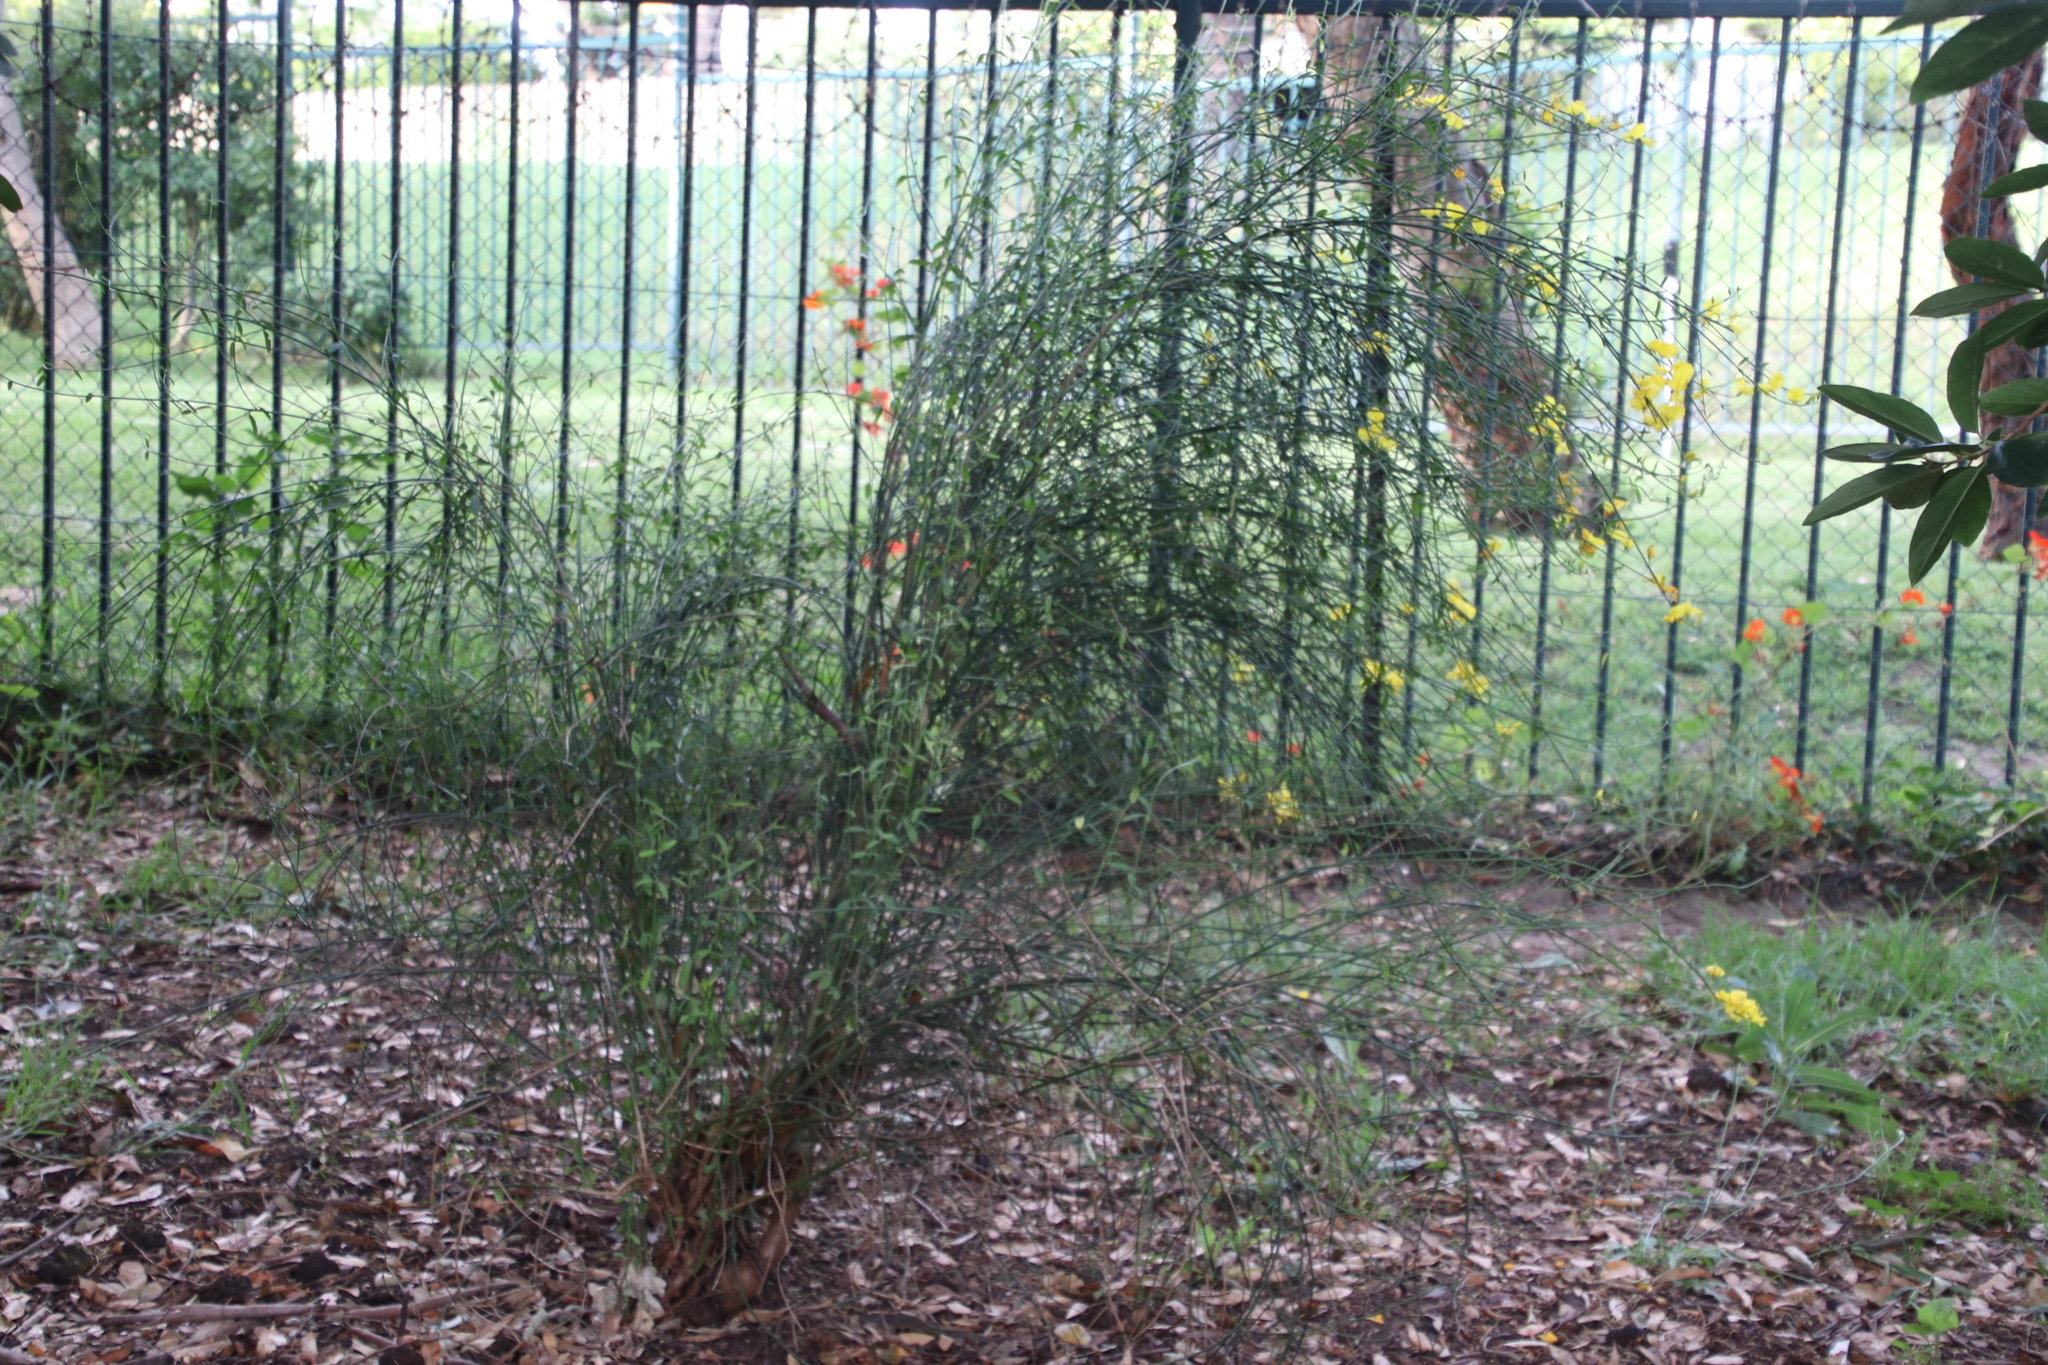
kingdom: Plantae
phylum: Tracheophyta
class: Magnoliopsida
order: Fabales
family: Fabaceae
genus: Spartium
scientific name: Spartium junceum
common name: Spanish broom
